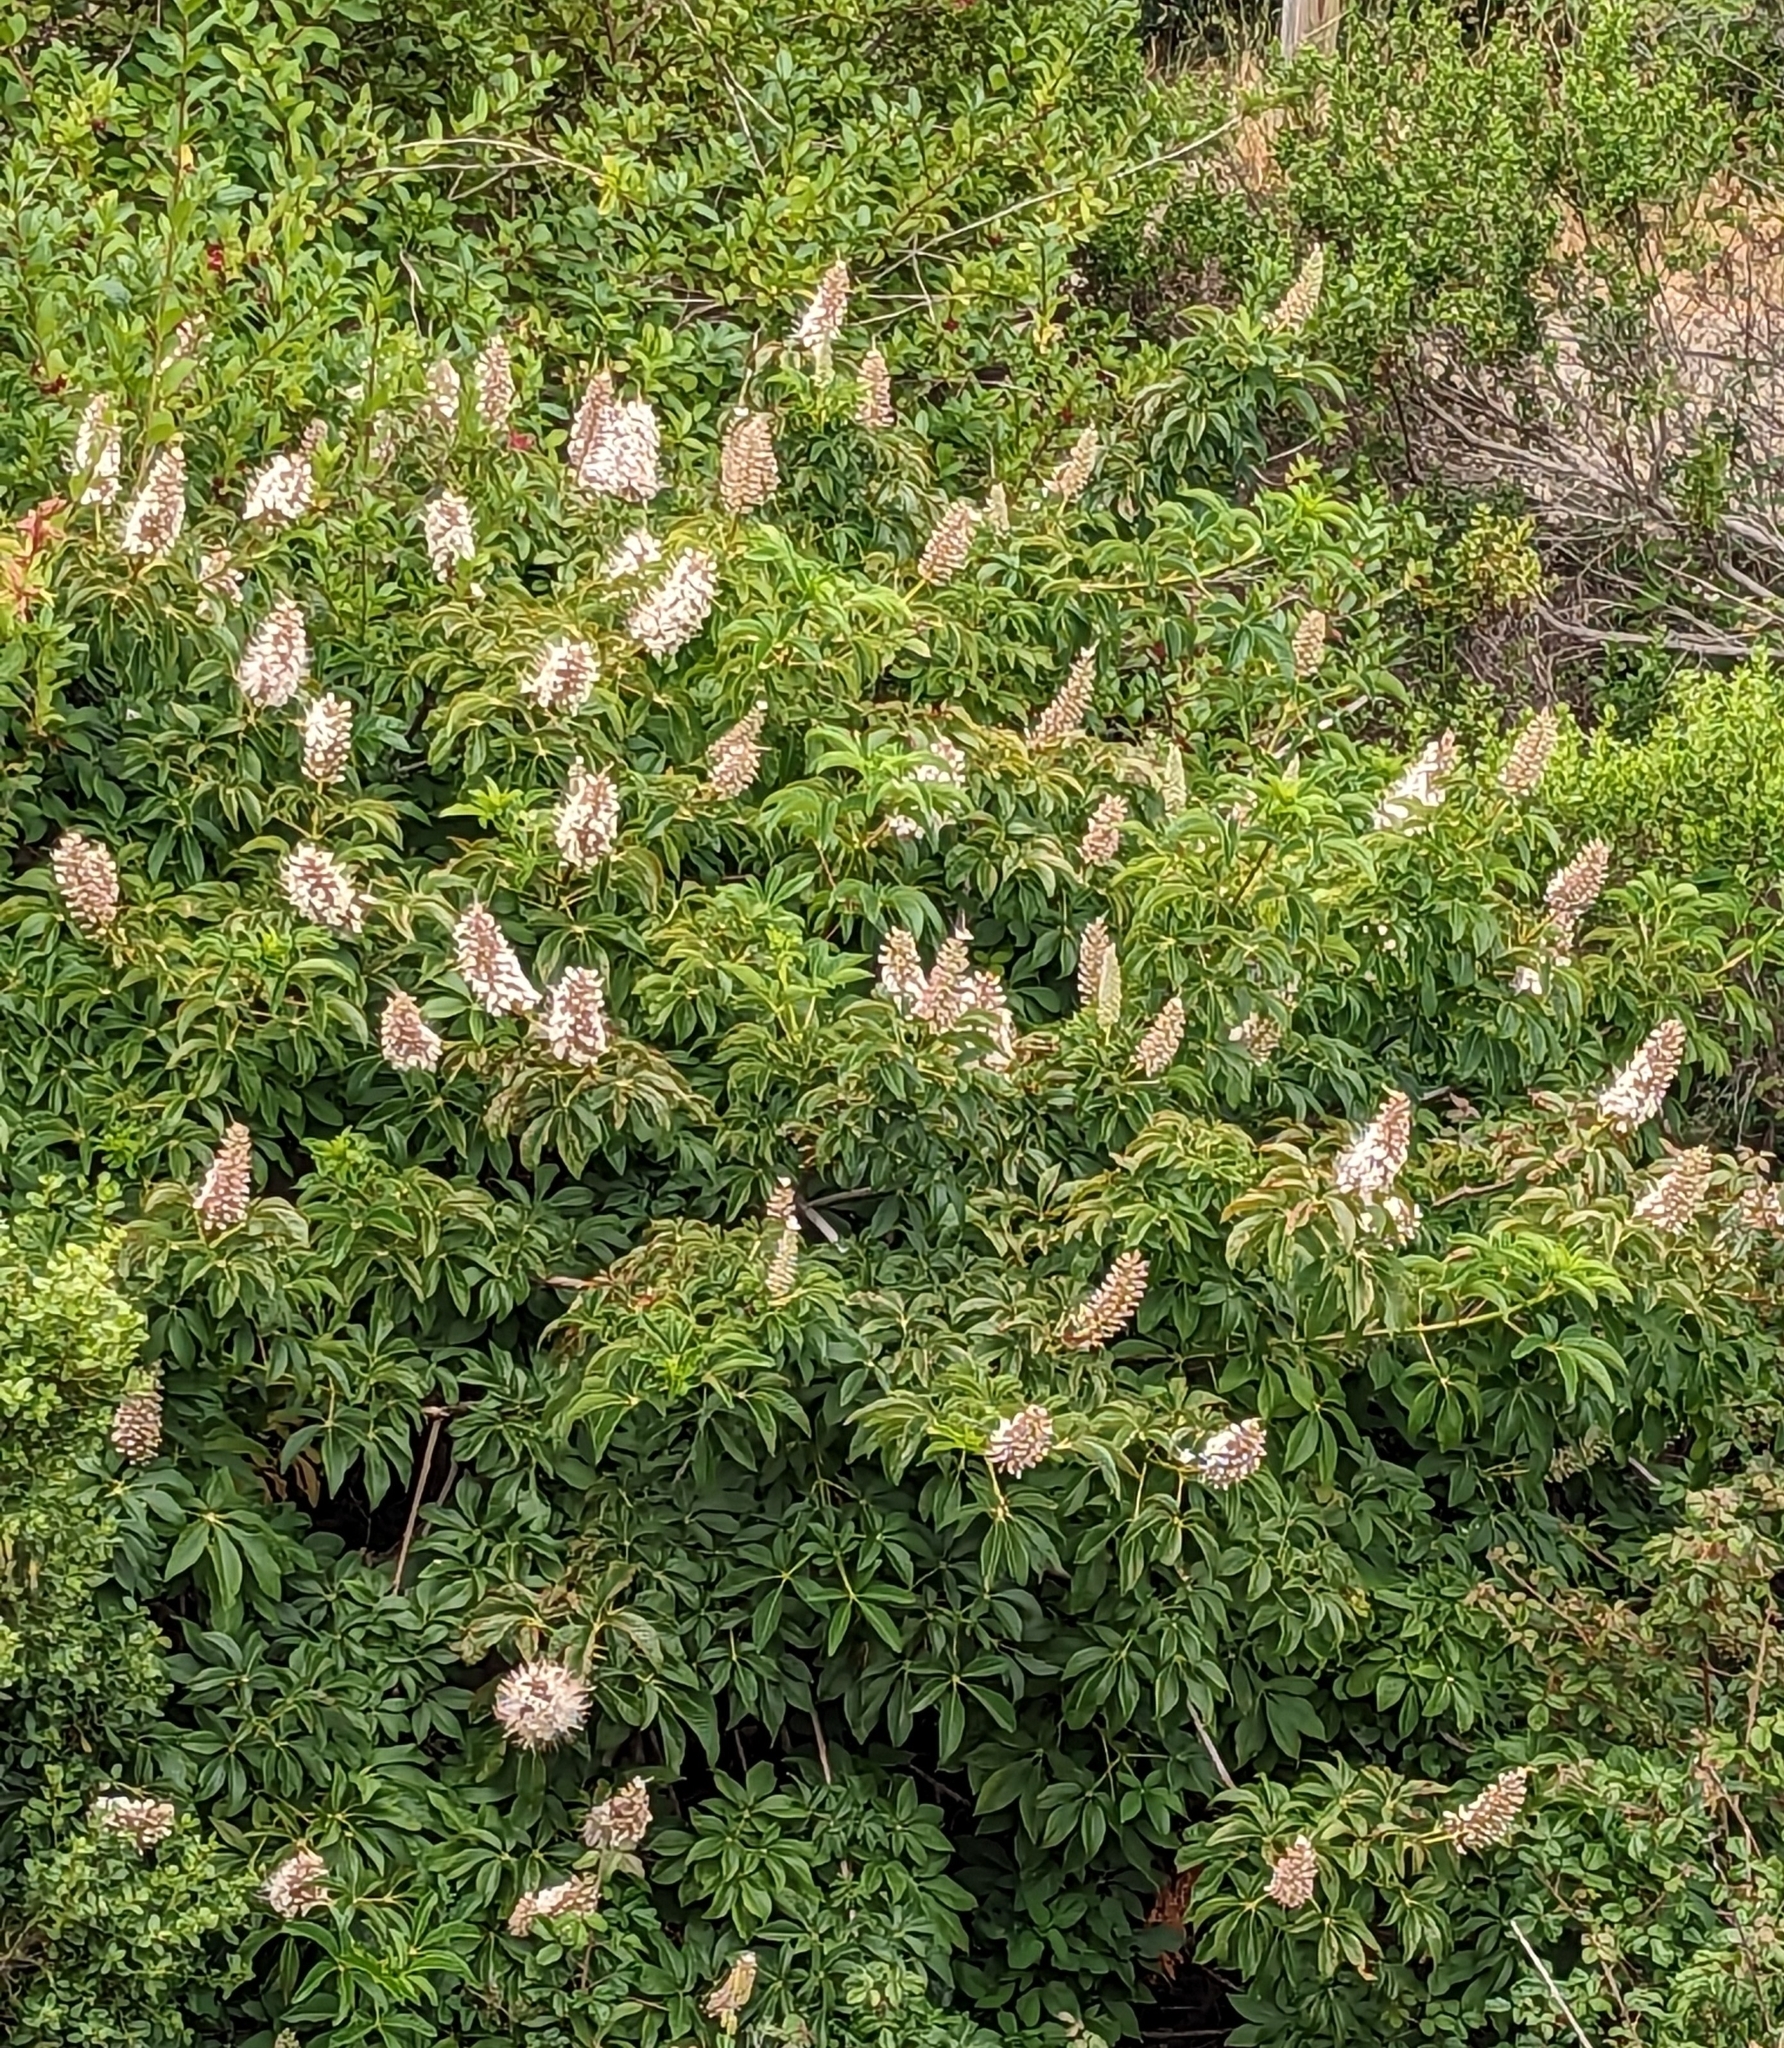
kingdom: Plantae
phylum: Tracheophyta
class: Magnoliopsida
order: Sapindales
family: Sapindaceae
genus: Aesculus
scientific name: Aesculus californica
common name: California buckeye
